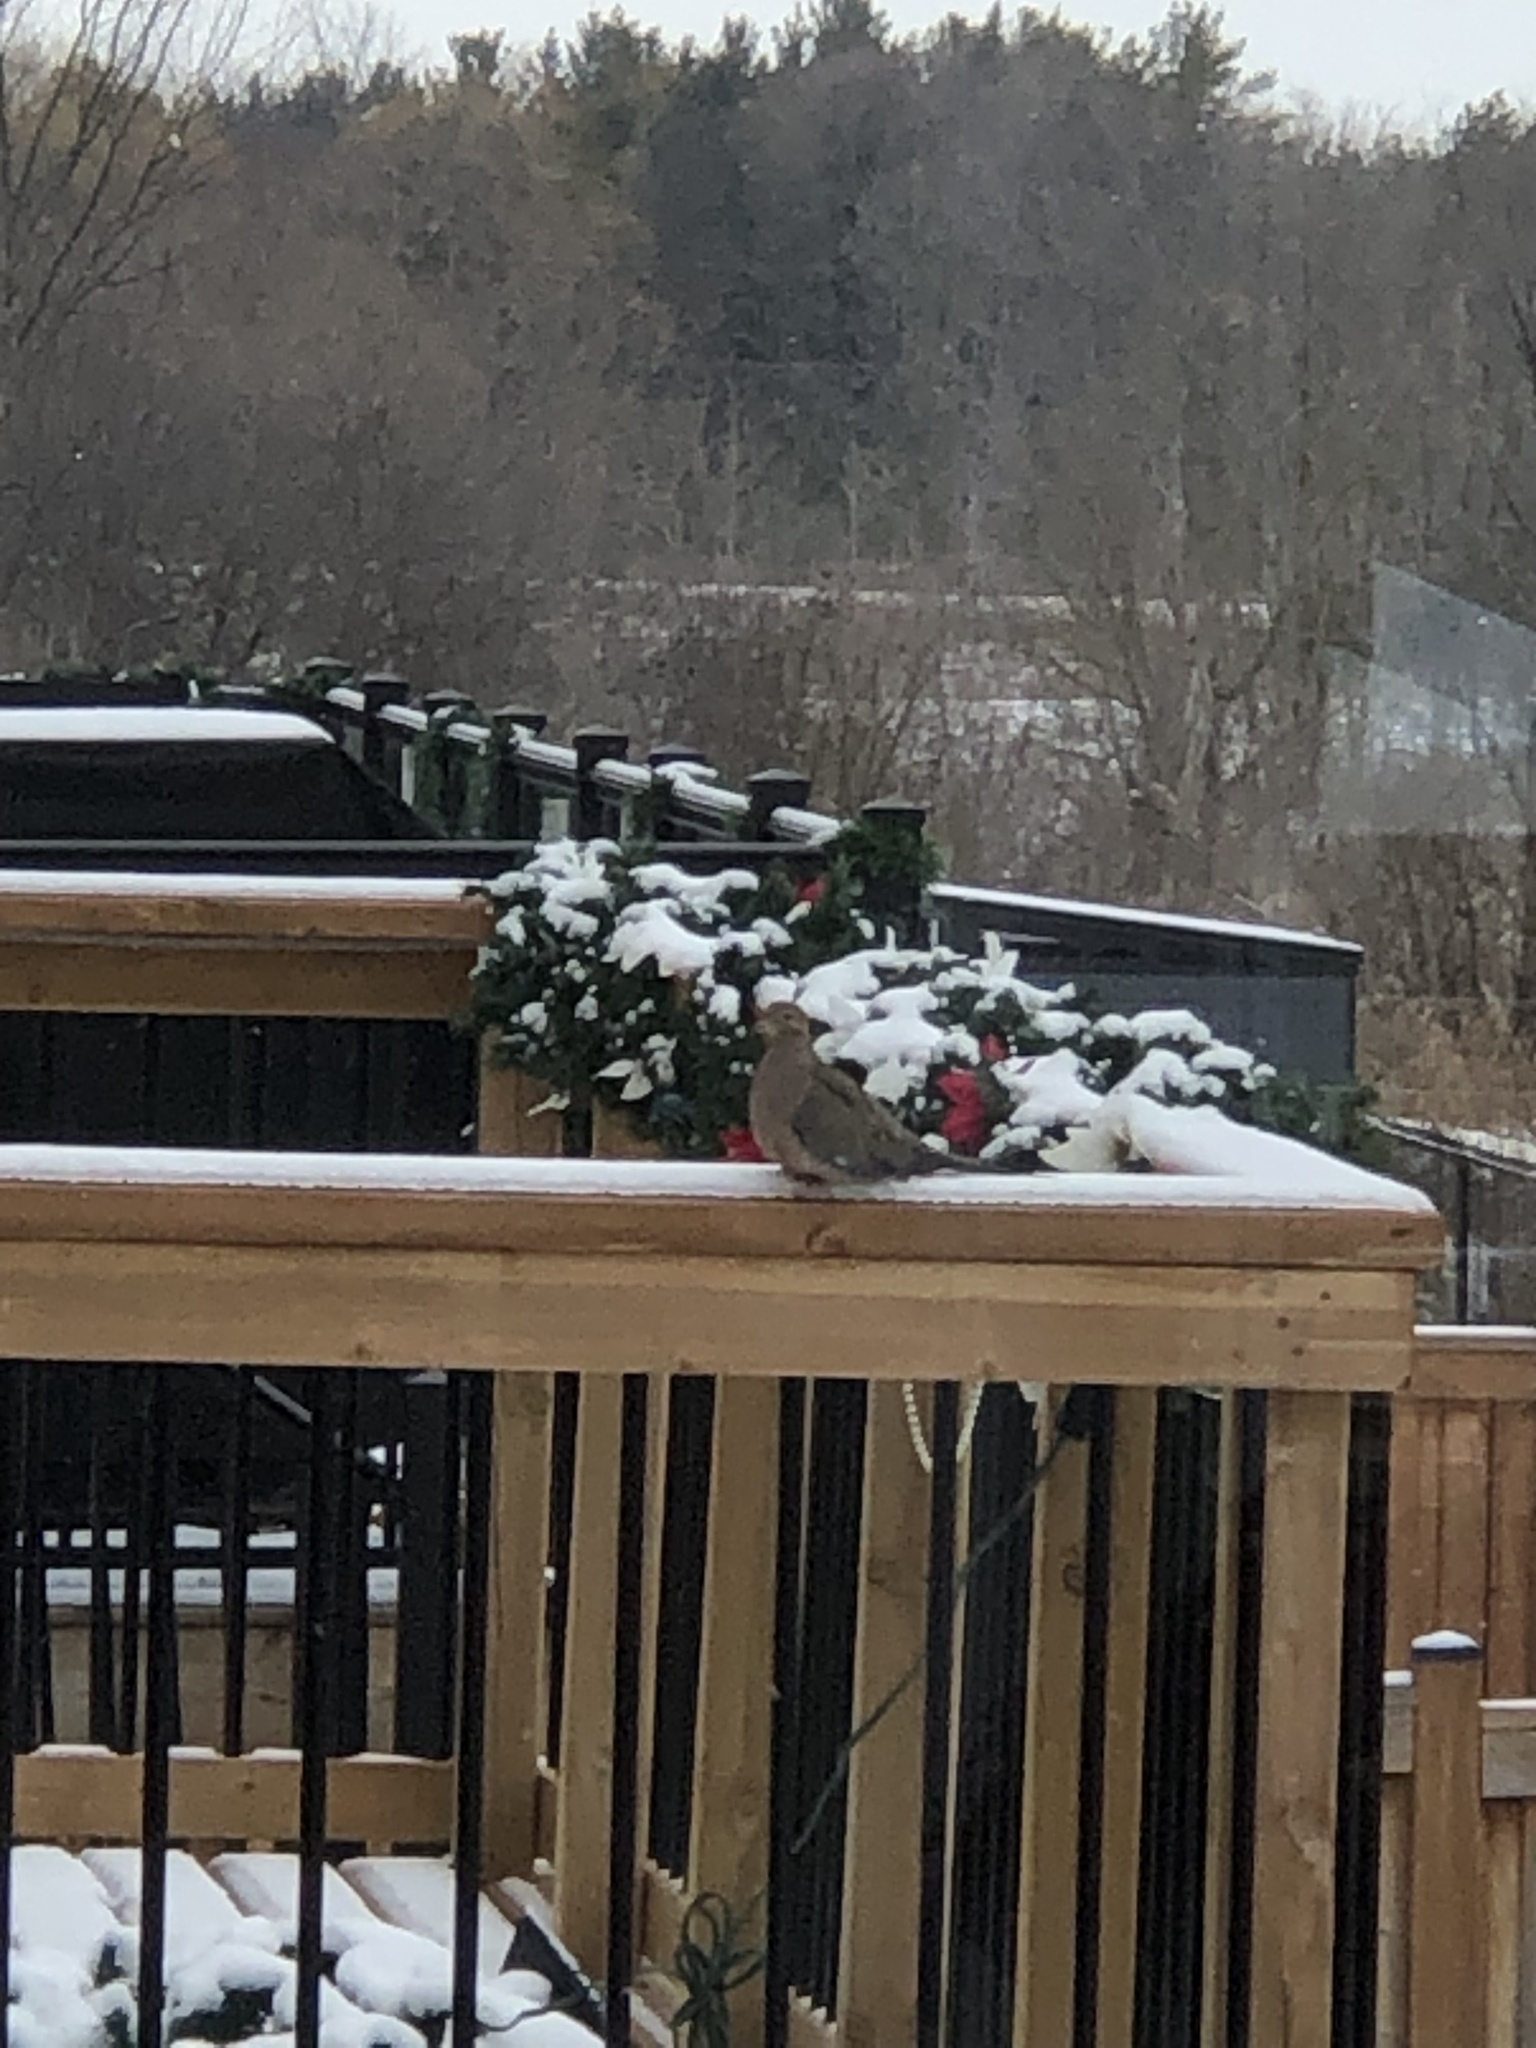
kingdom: Animalia
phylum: Chordata
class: Aves
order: Columbiformes
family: Columbidae
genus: Zenaida
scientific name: Zenaida macroura
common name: Mourning dove
